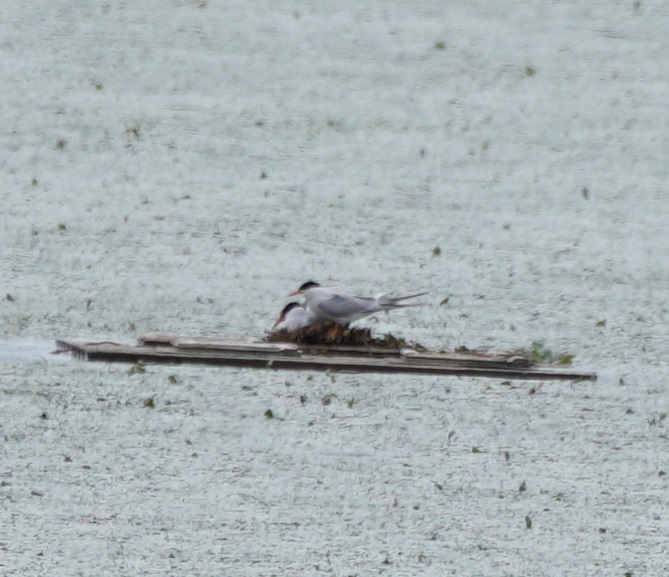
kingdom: Animalia
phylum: Chordata
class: Aves
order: Charadriiformes
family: Laridae
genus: Sterna
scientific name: Sterna hirundo
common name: Common tern
